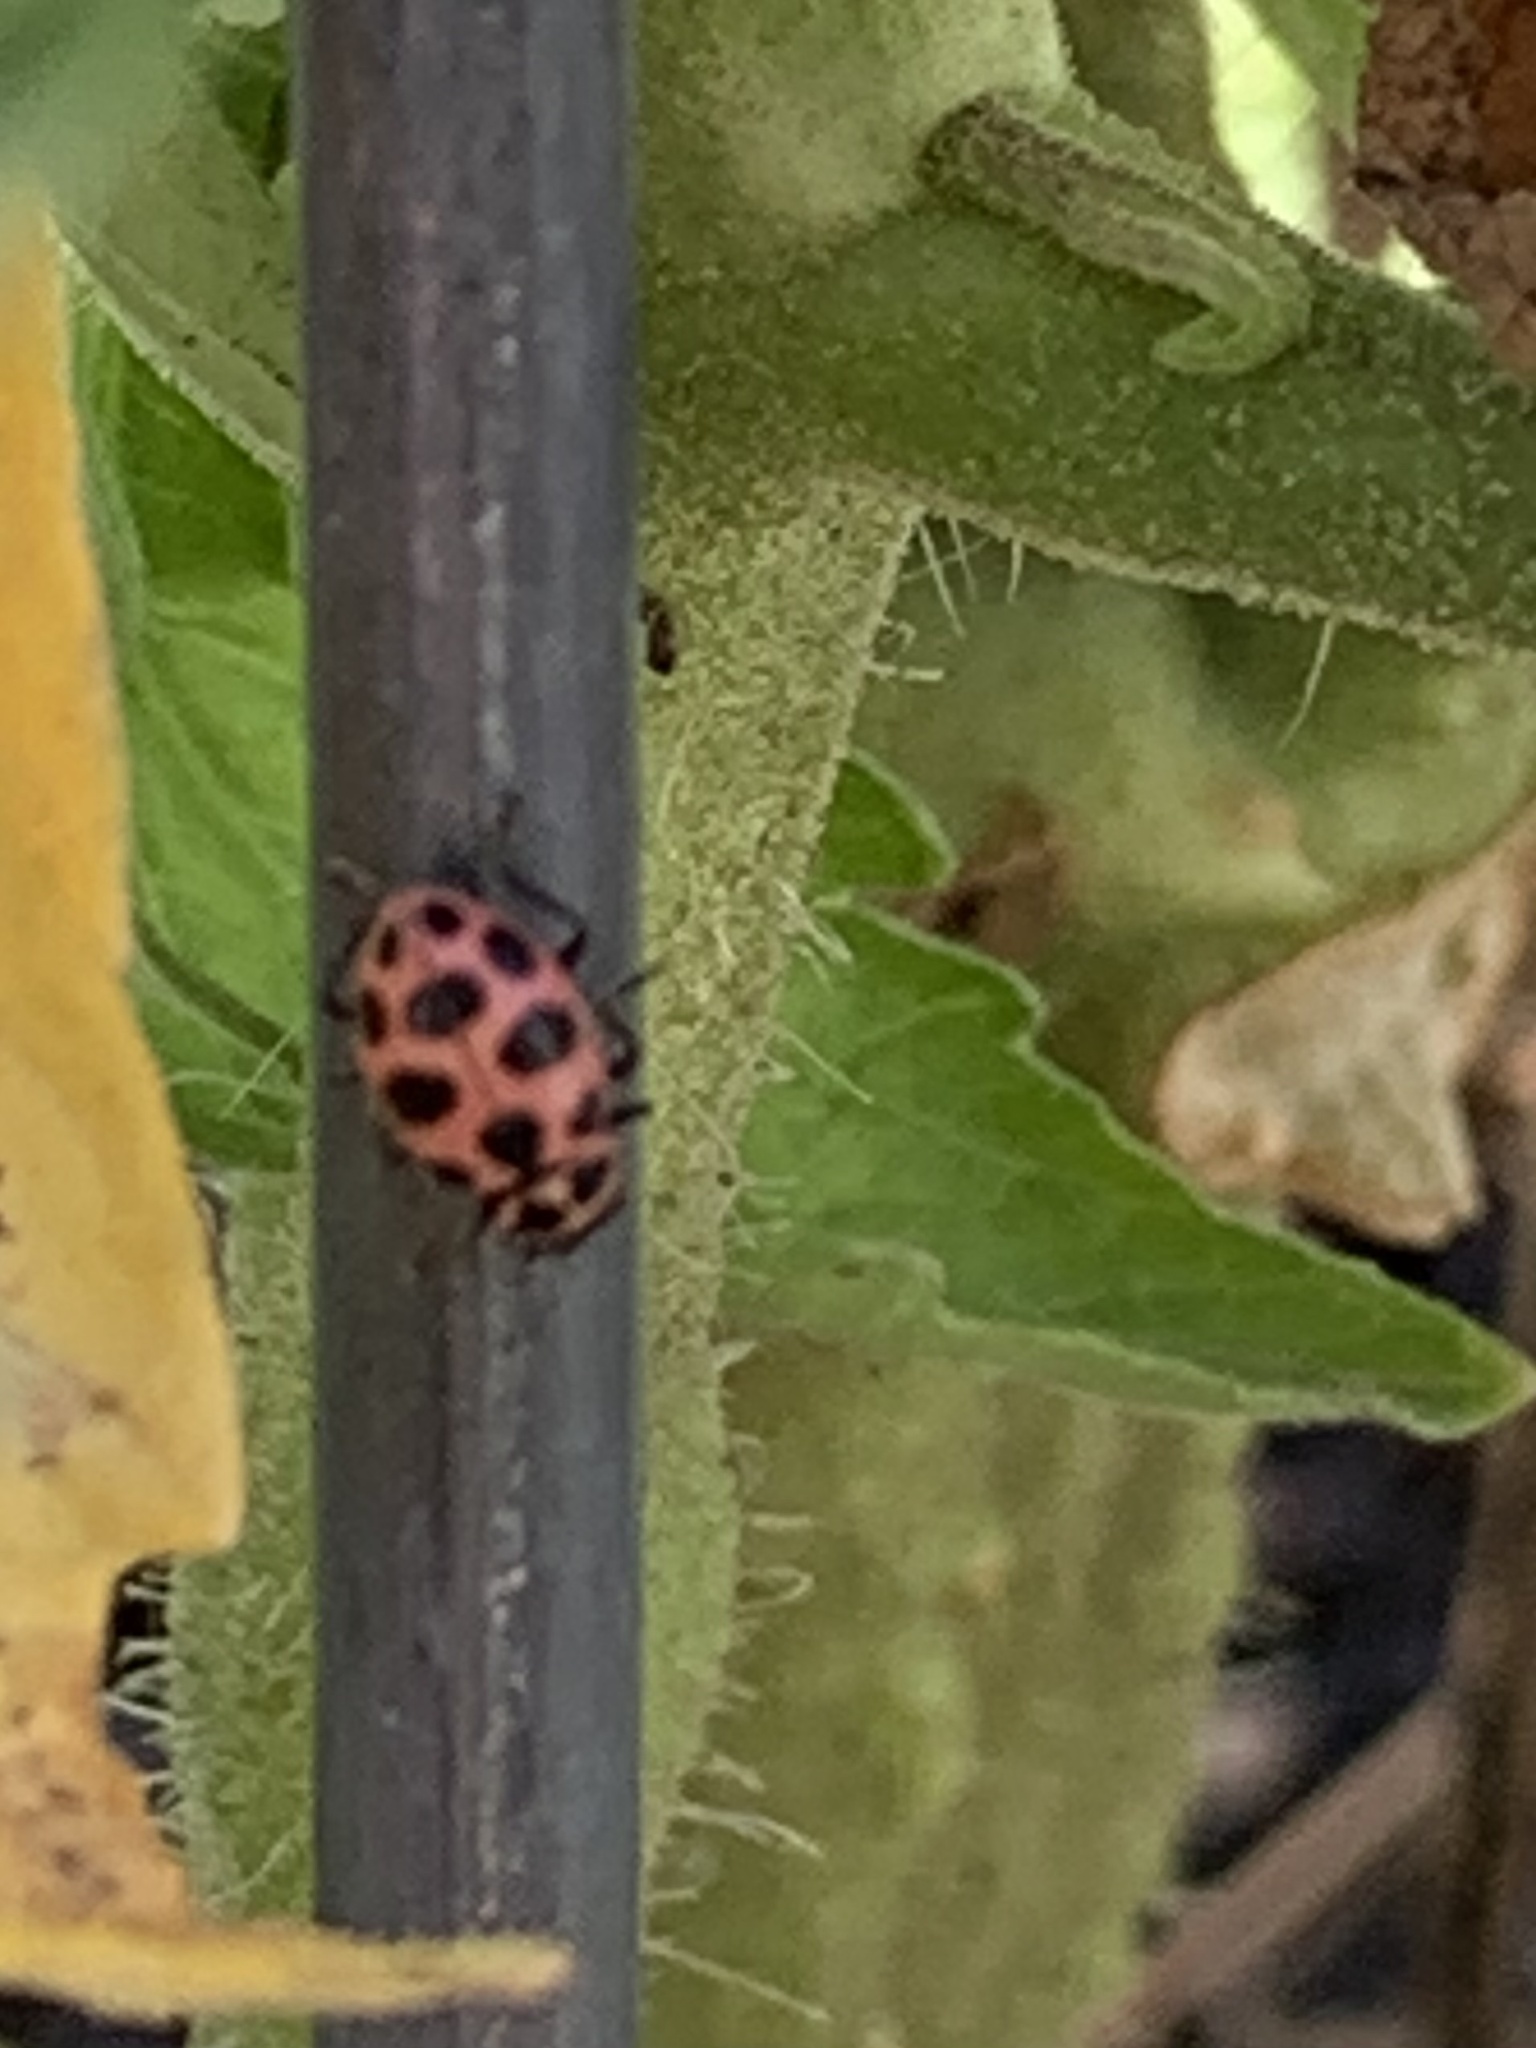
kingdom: Animalia
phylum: Arthropoda
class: Insecta
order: Coleoptera
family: Coccinellidae
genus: Coleomegilla
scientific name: Coleomegilla maculata
